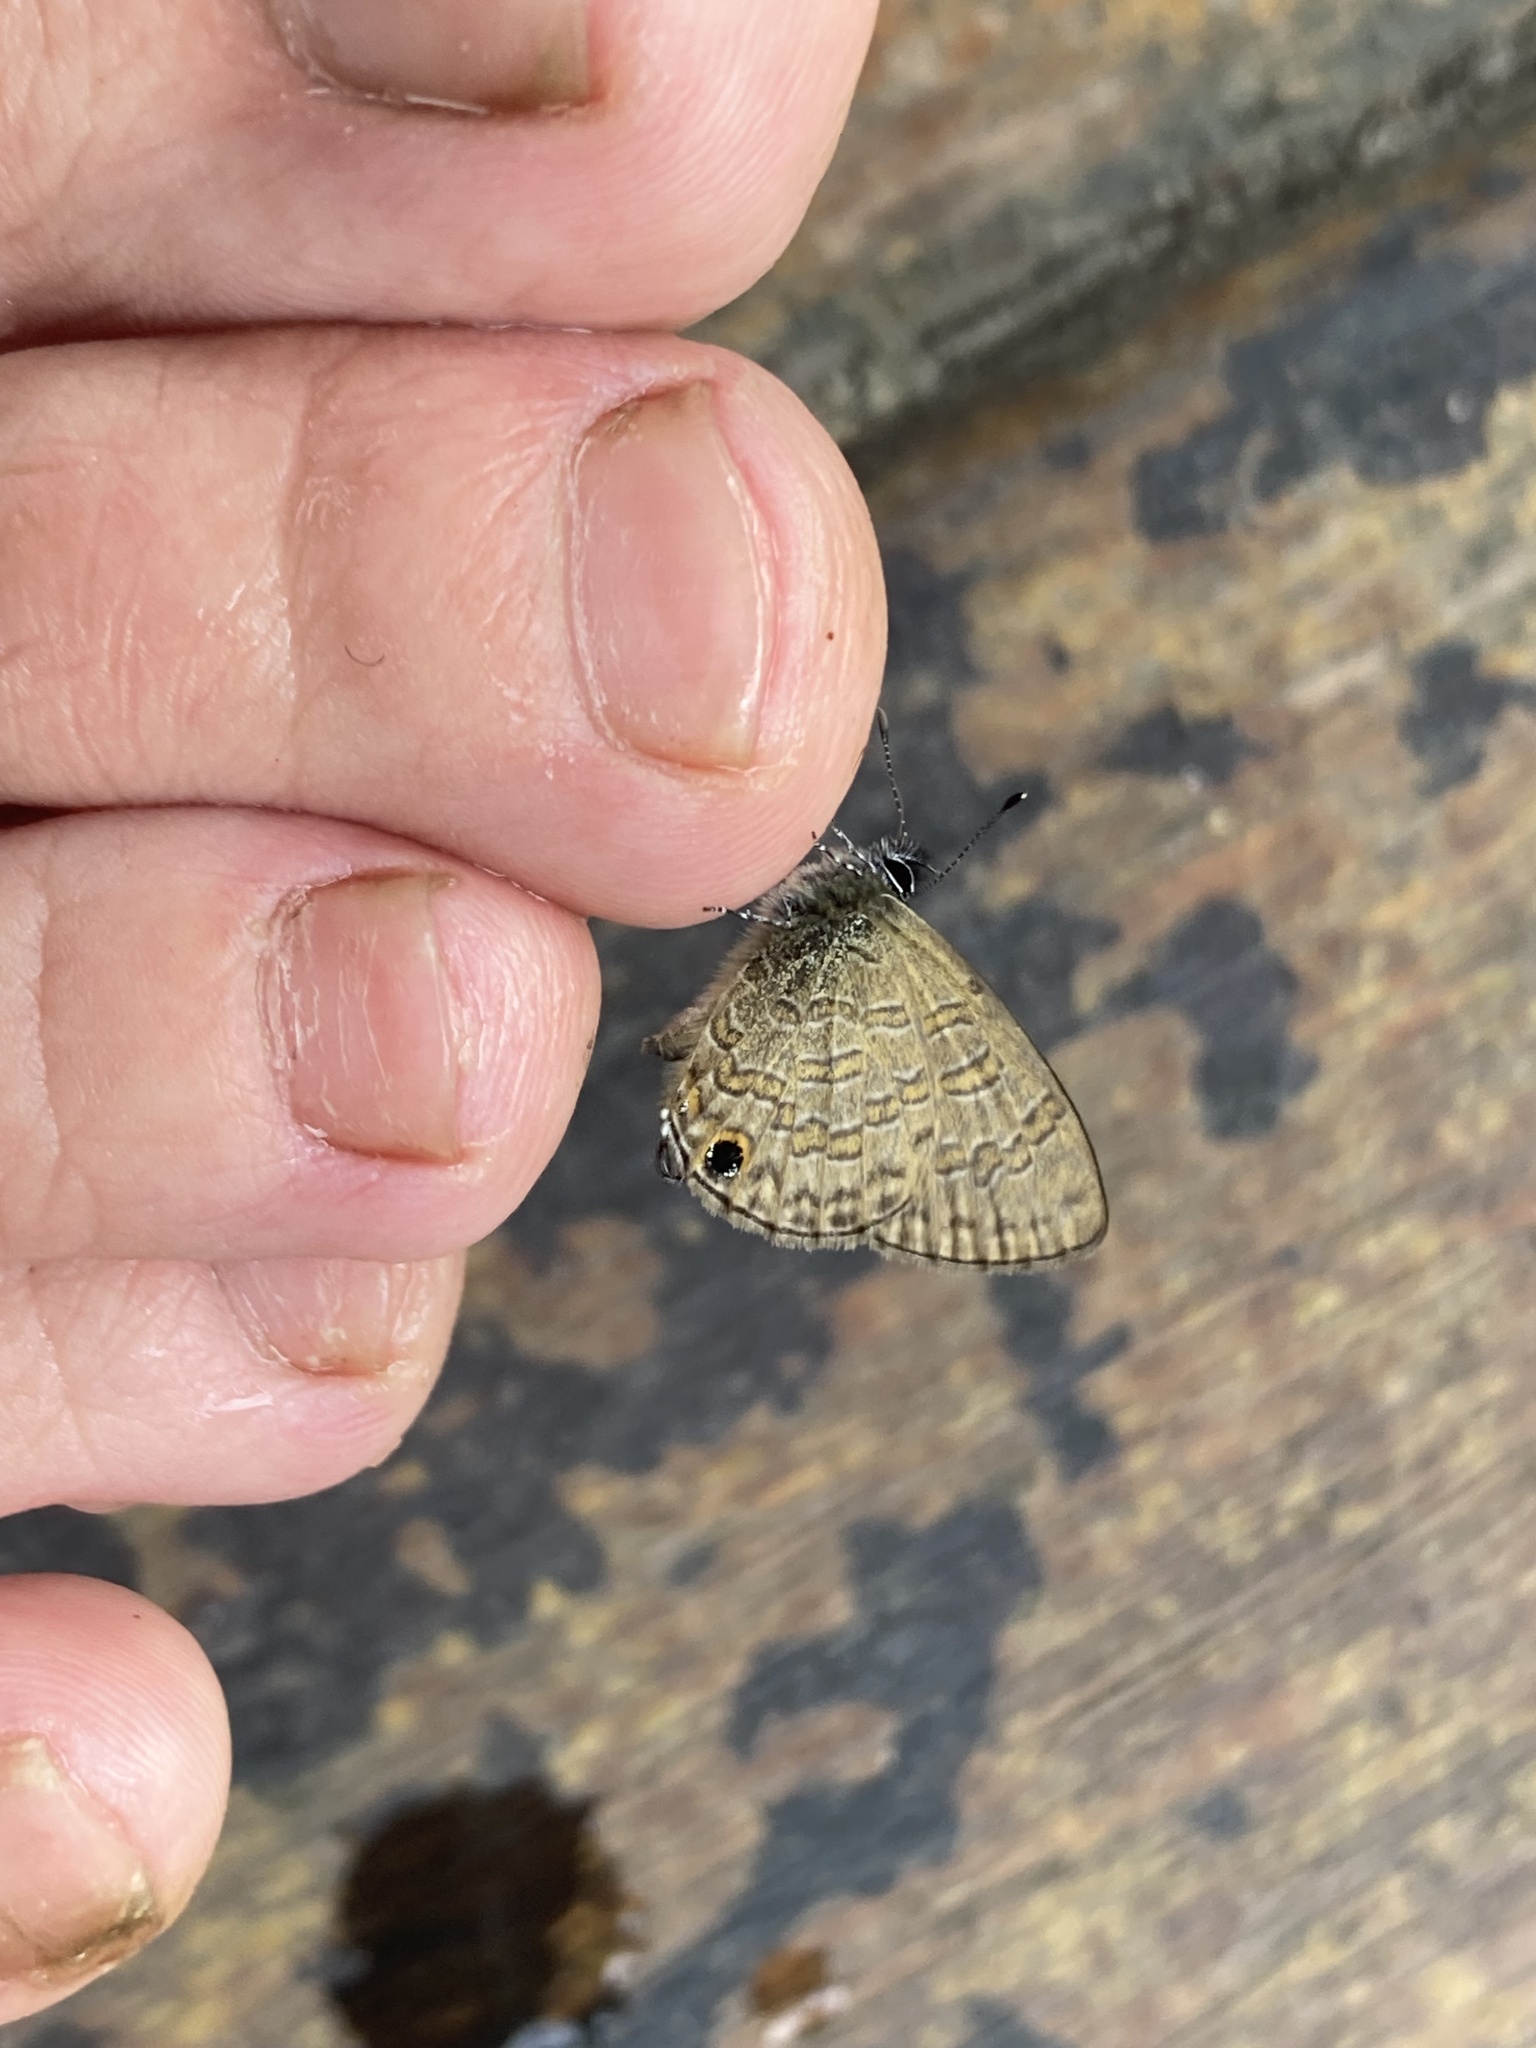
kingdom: Animalia
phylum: Arthropoda
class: Insecta
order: Lepidoptera
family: Lycaenidae
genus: Prosotas
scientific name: Prosotas nora
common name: Common line blue
